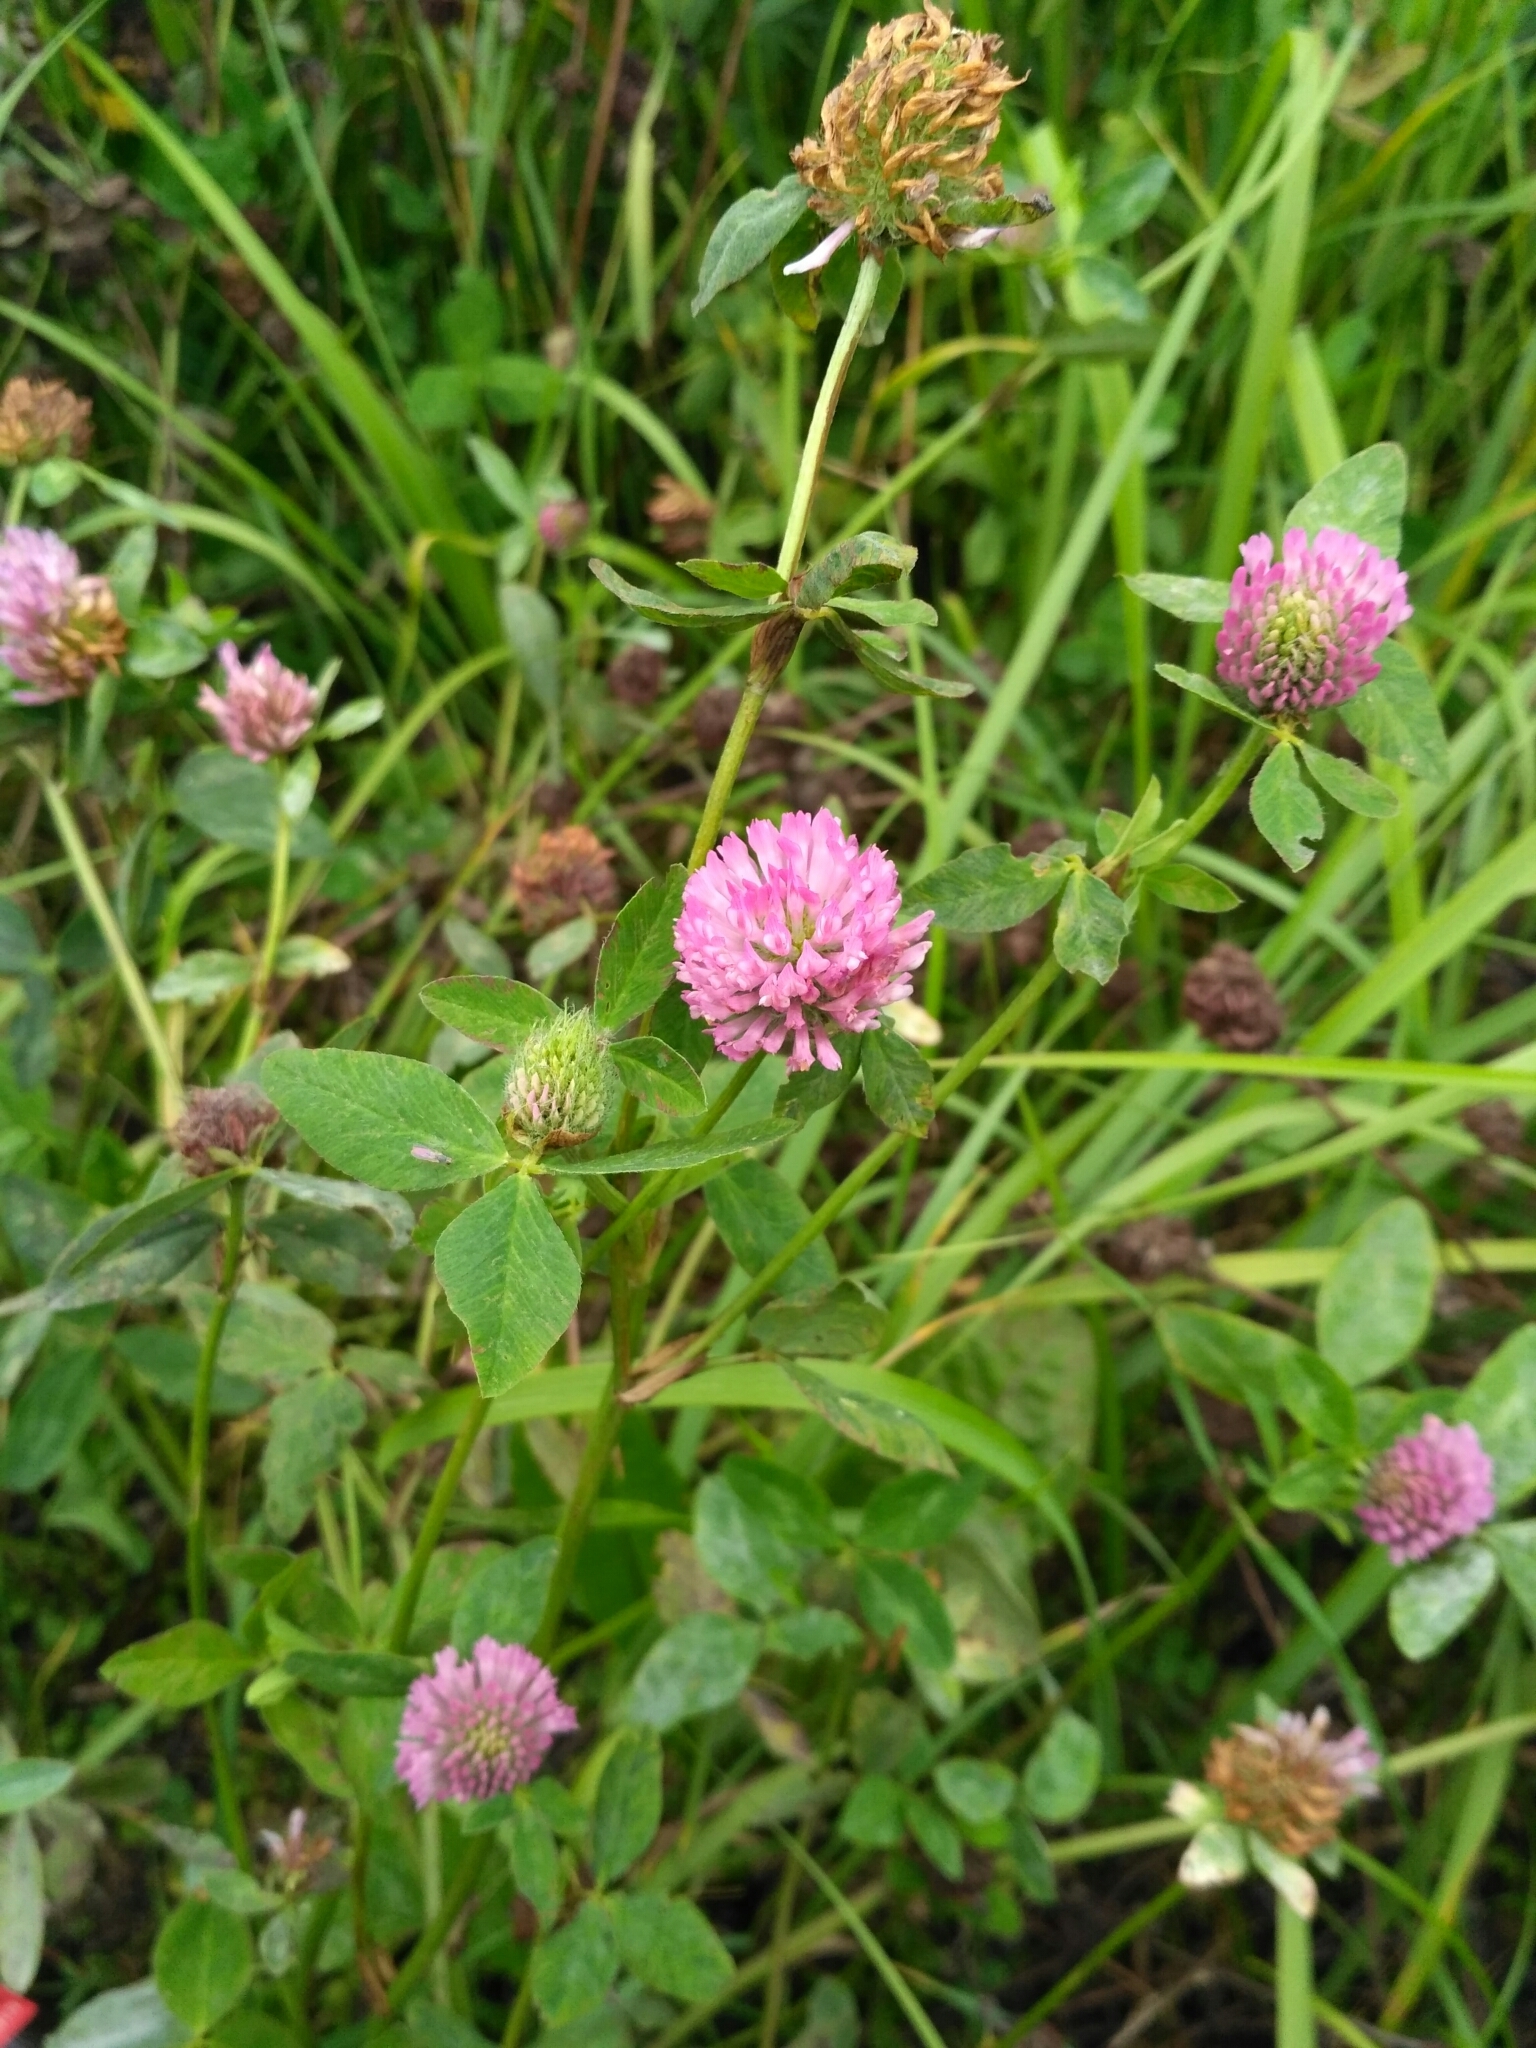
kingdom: Plantae
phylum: Tracheophyta
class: Magnoliopsida
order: Fabales
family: Fabaceae
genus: Trifolium
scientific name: Trifolium pratense
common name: Red clover
